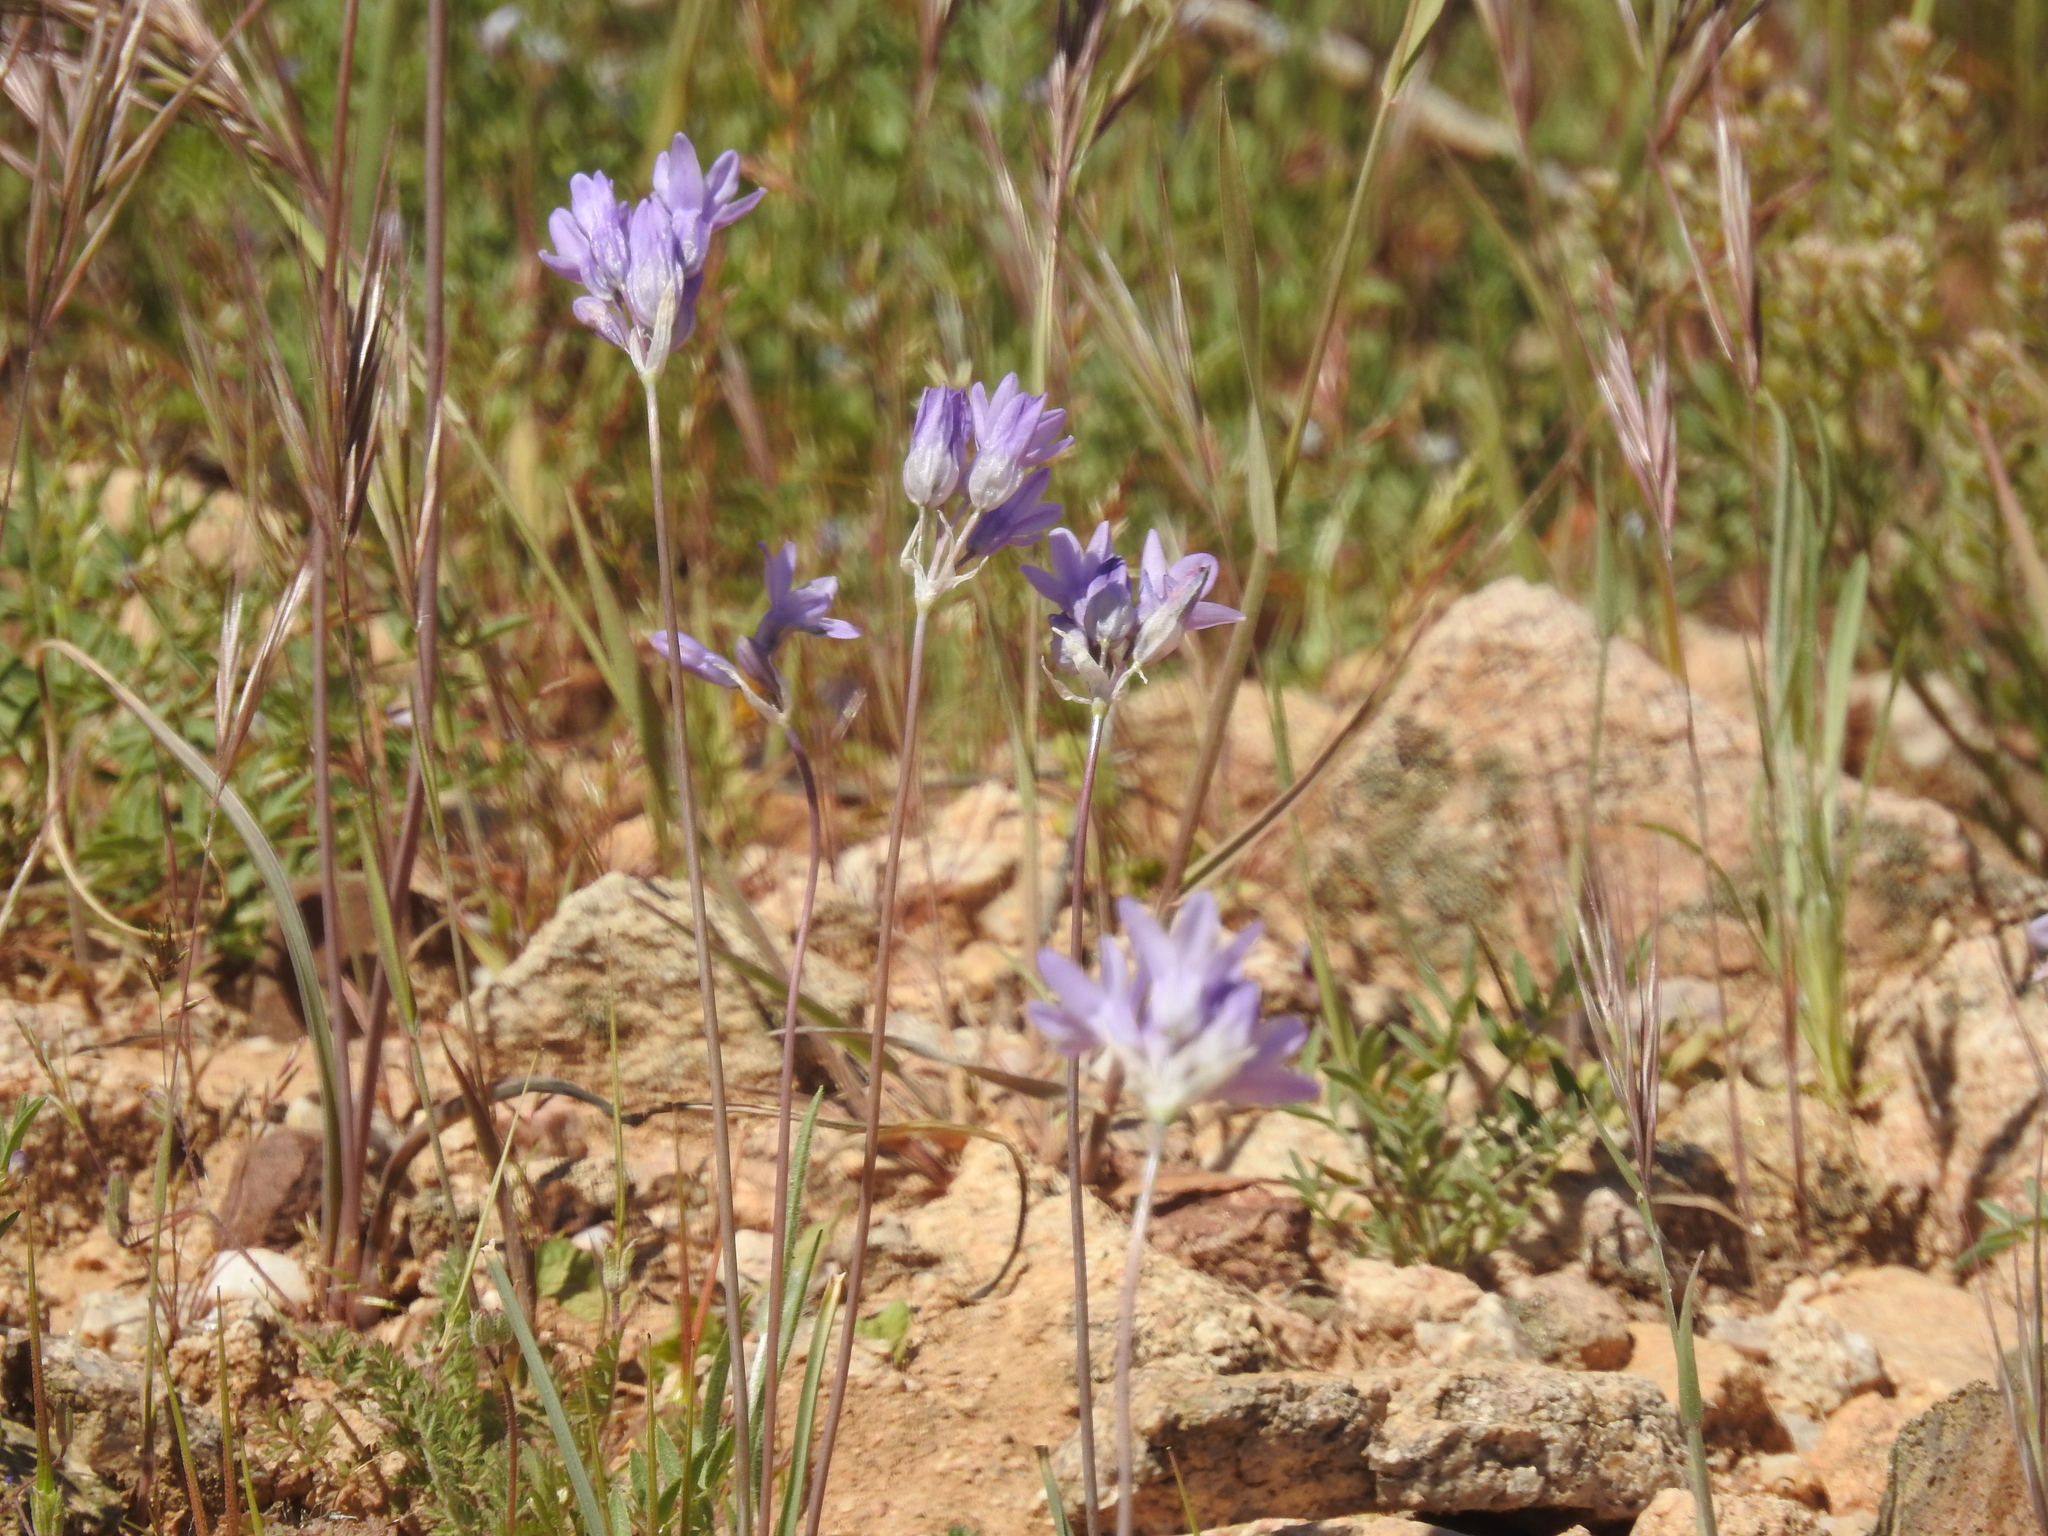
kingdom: Plantae
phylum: Tracheophyta
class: Liliopsida
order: Asparagales
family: Asparagaceae
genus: Dipterostemon
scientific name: Dipterostemon capitatus
